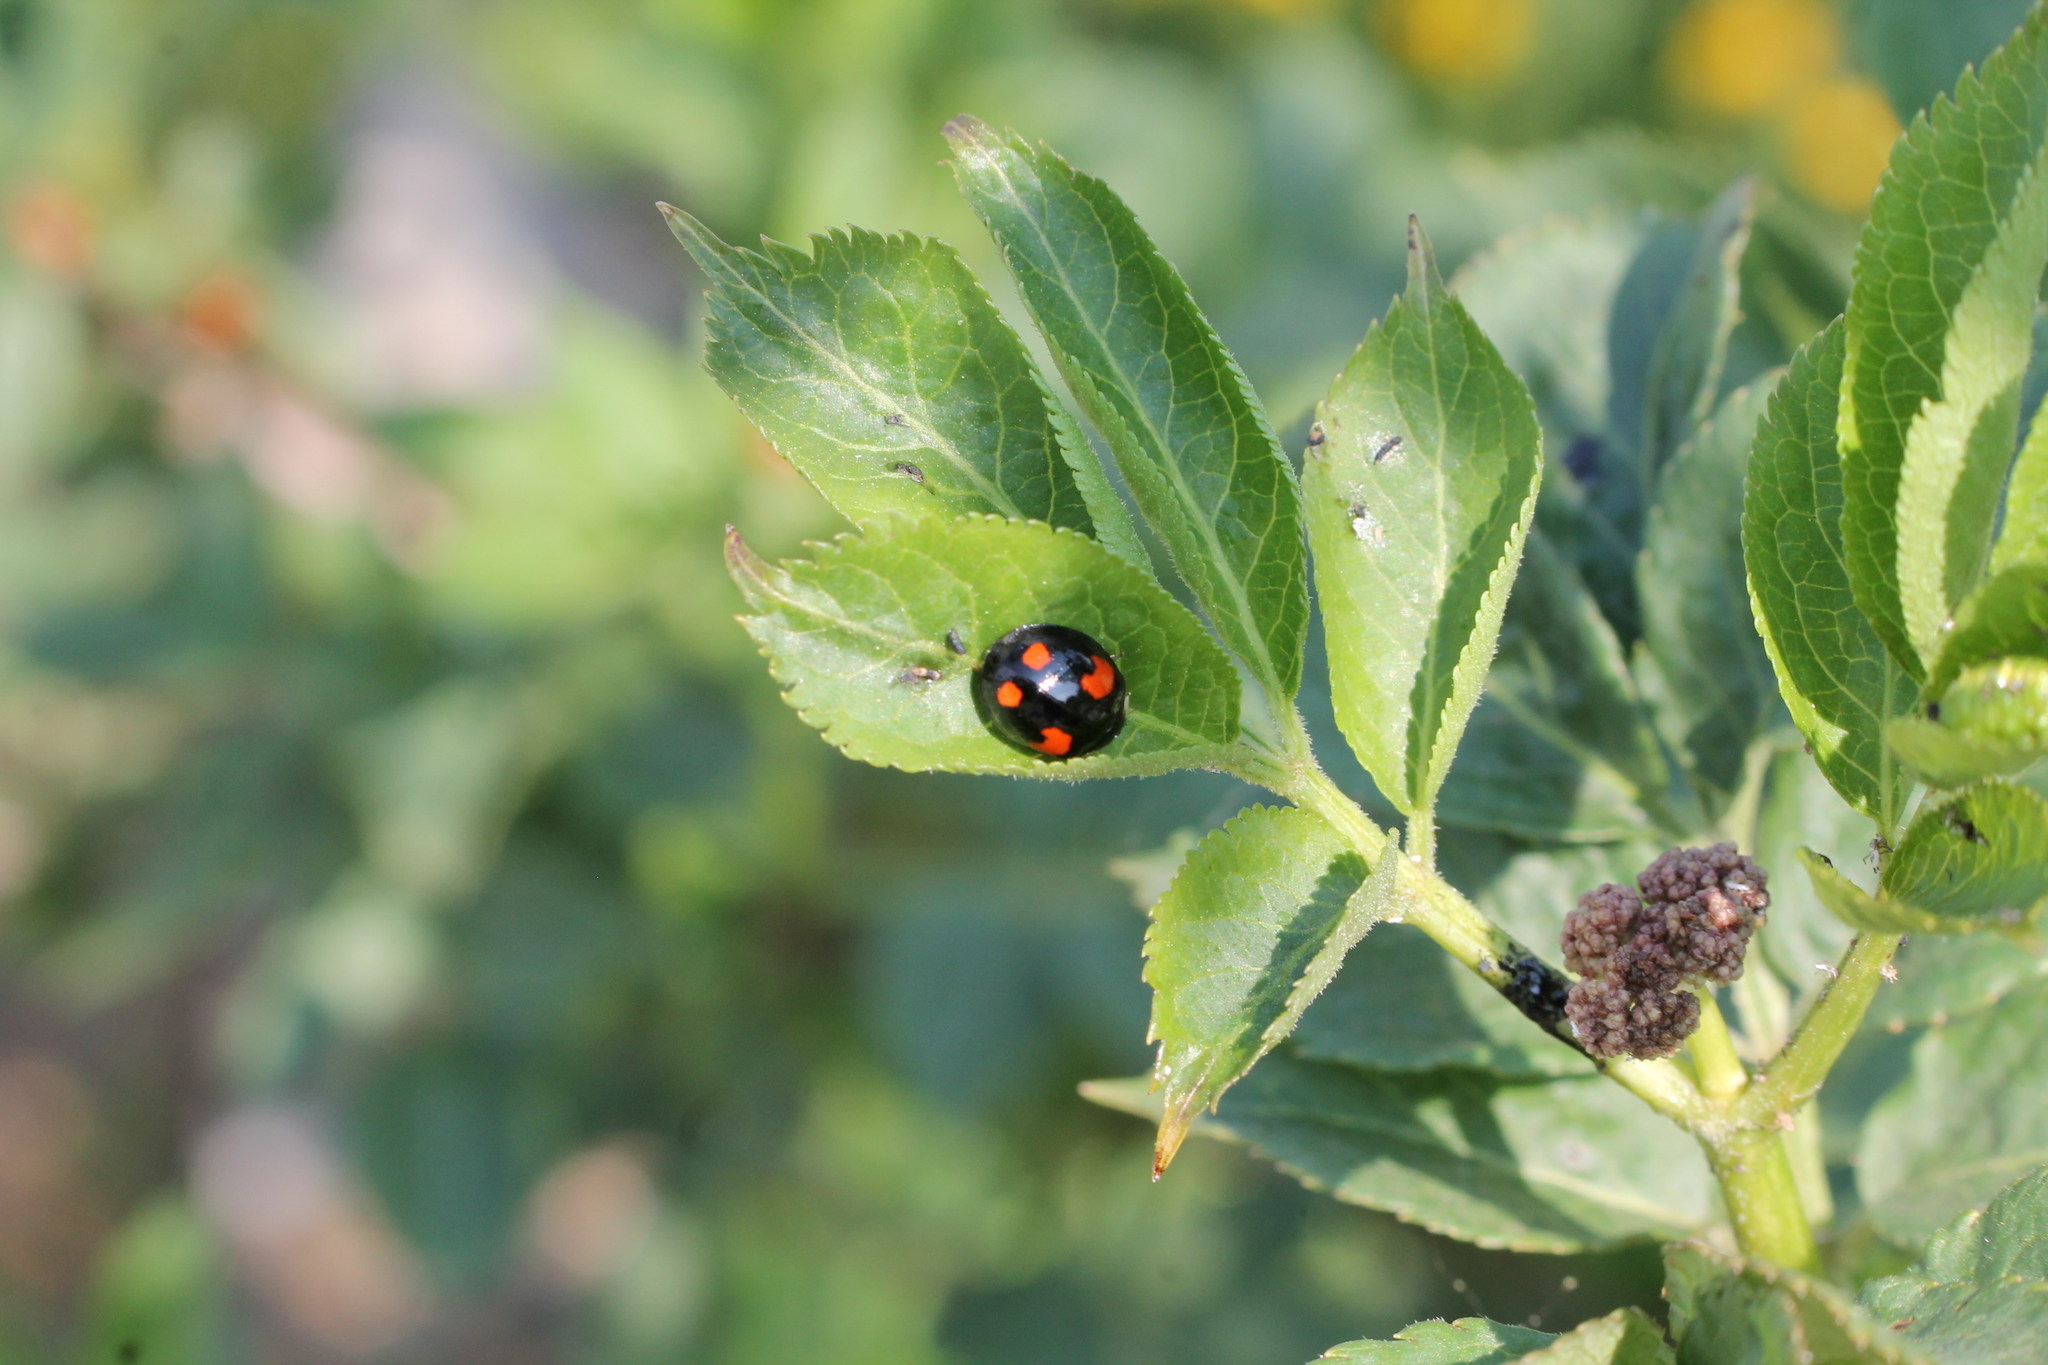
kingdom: Animalia
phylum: Arthropoda
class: Insecta
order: Coleoptera
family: Coccinellidae
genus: Harmonia
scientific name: Harmonia axyridis
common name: Harlequin ladybird
